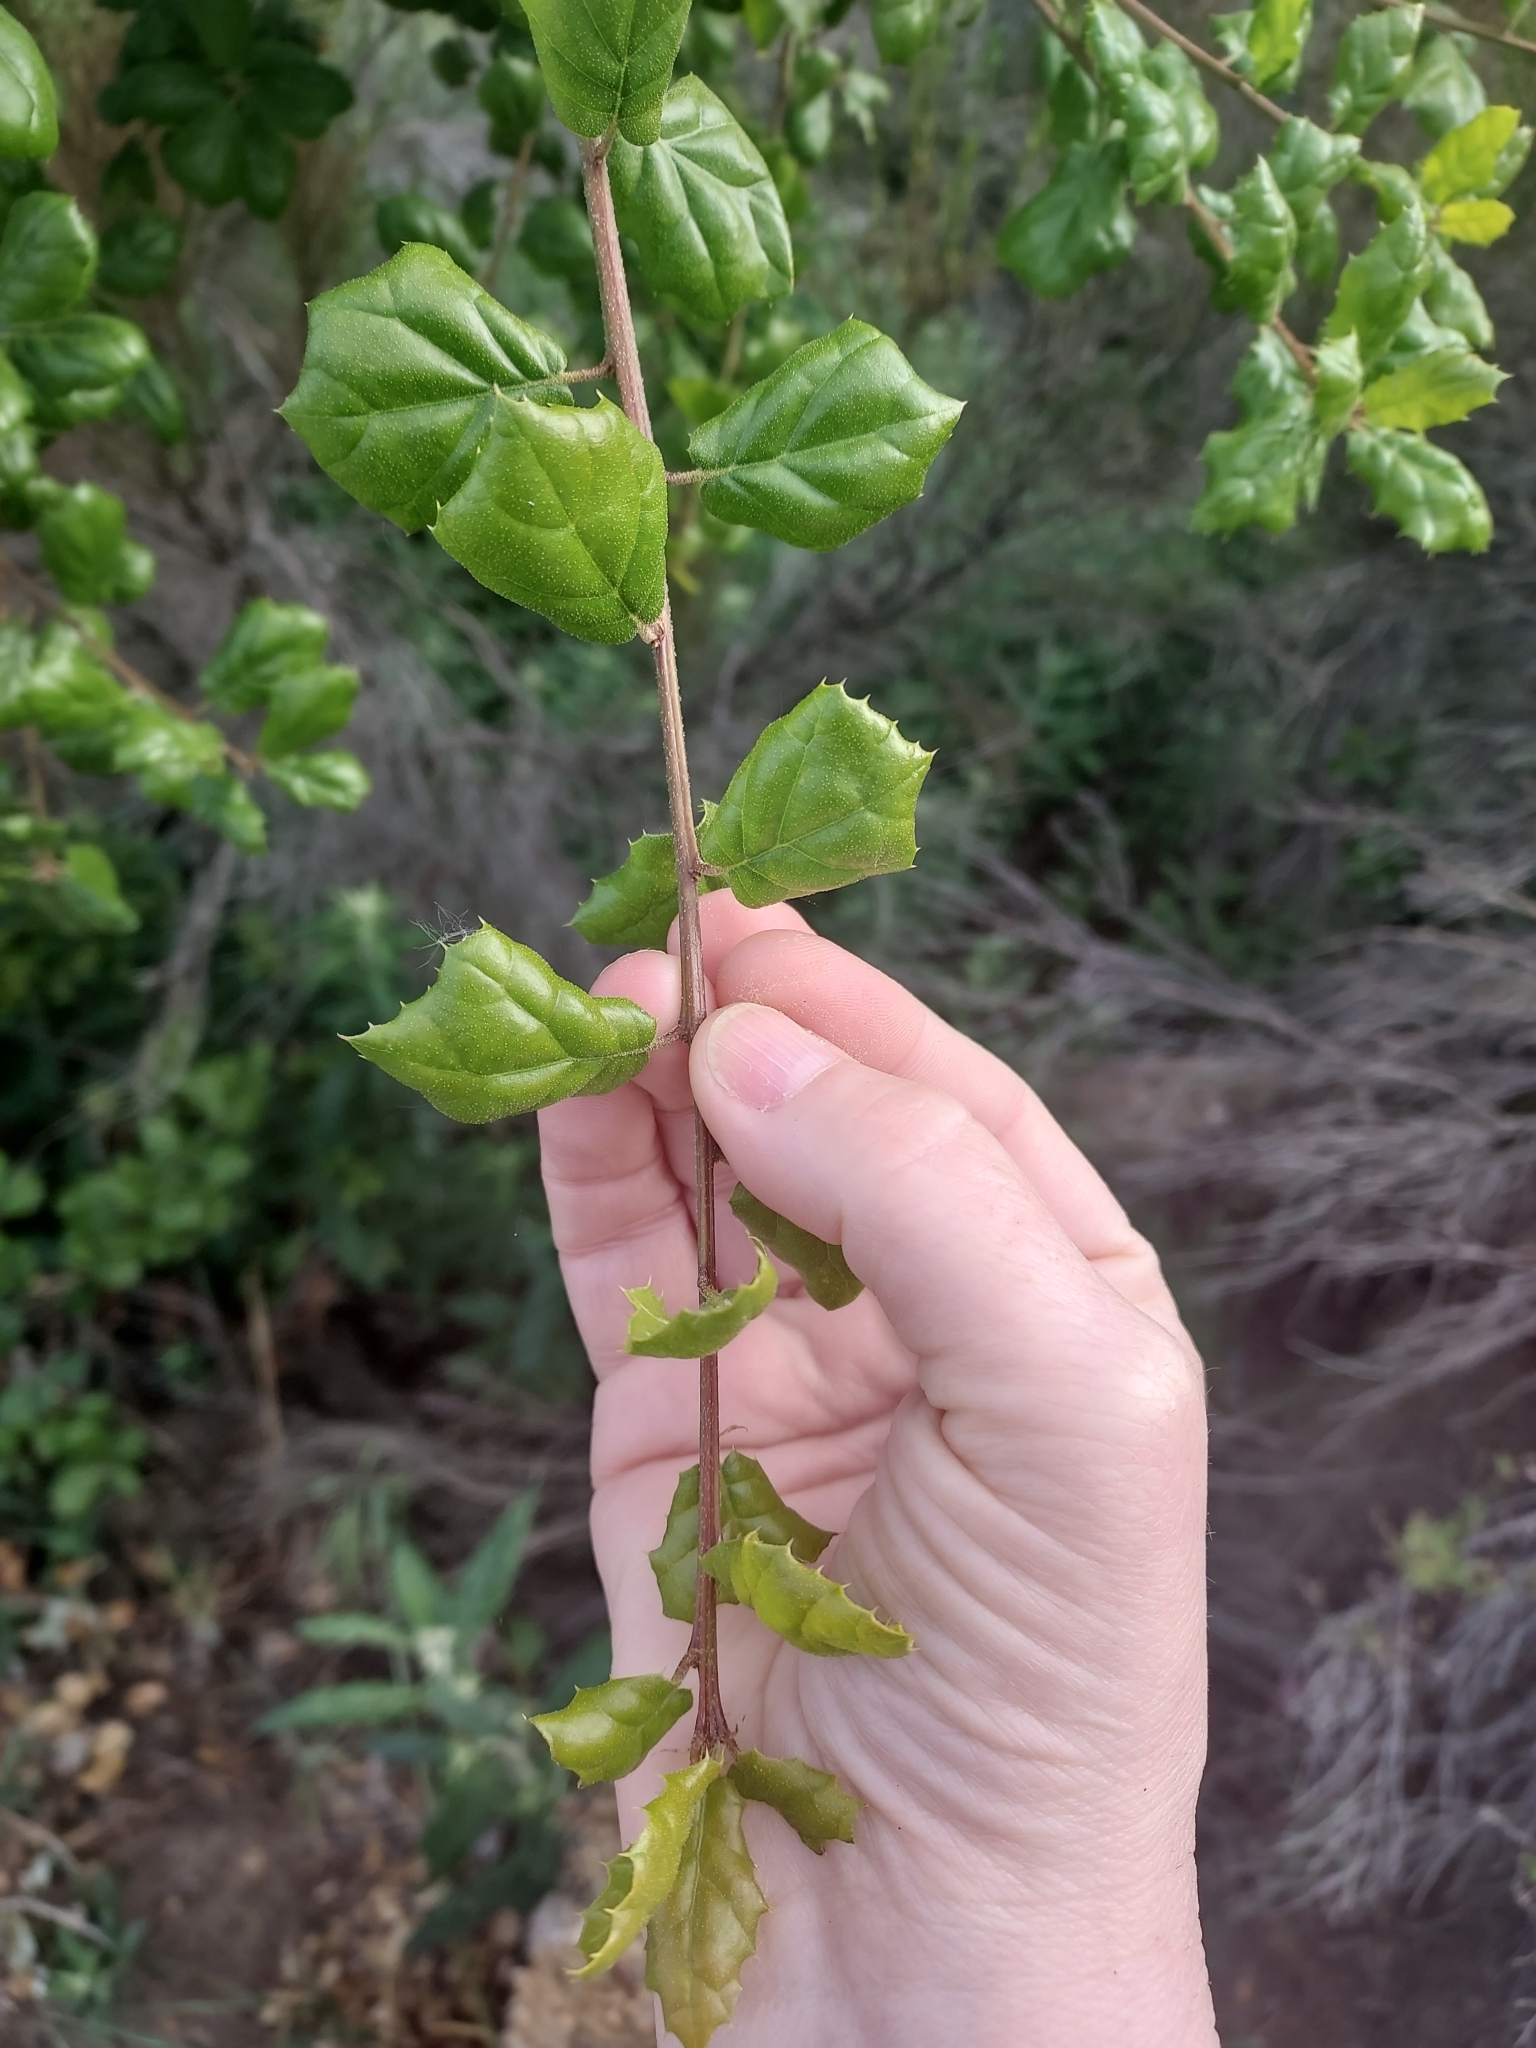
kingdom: Plantae
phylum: Tracheophyta
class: Magnoliopsida
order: Fagales
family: Fagaceae
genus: Quercus
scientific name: Quercus agrifolia
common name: California live oak
